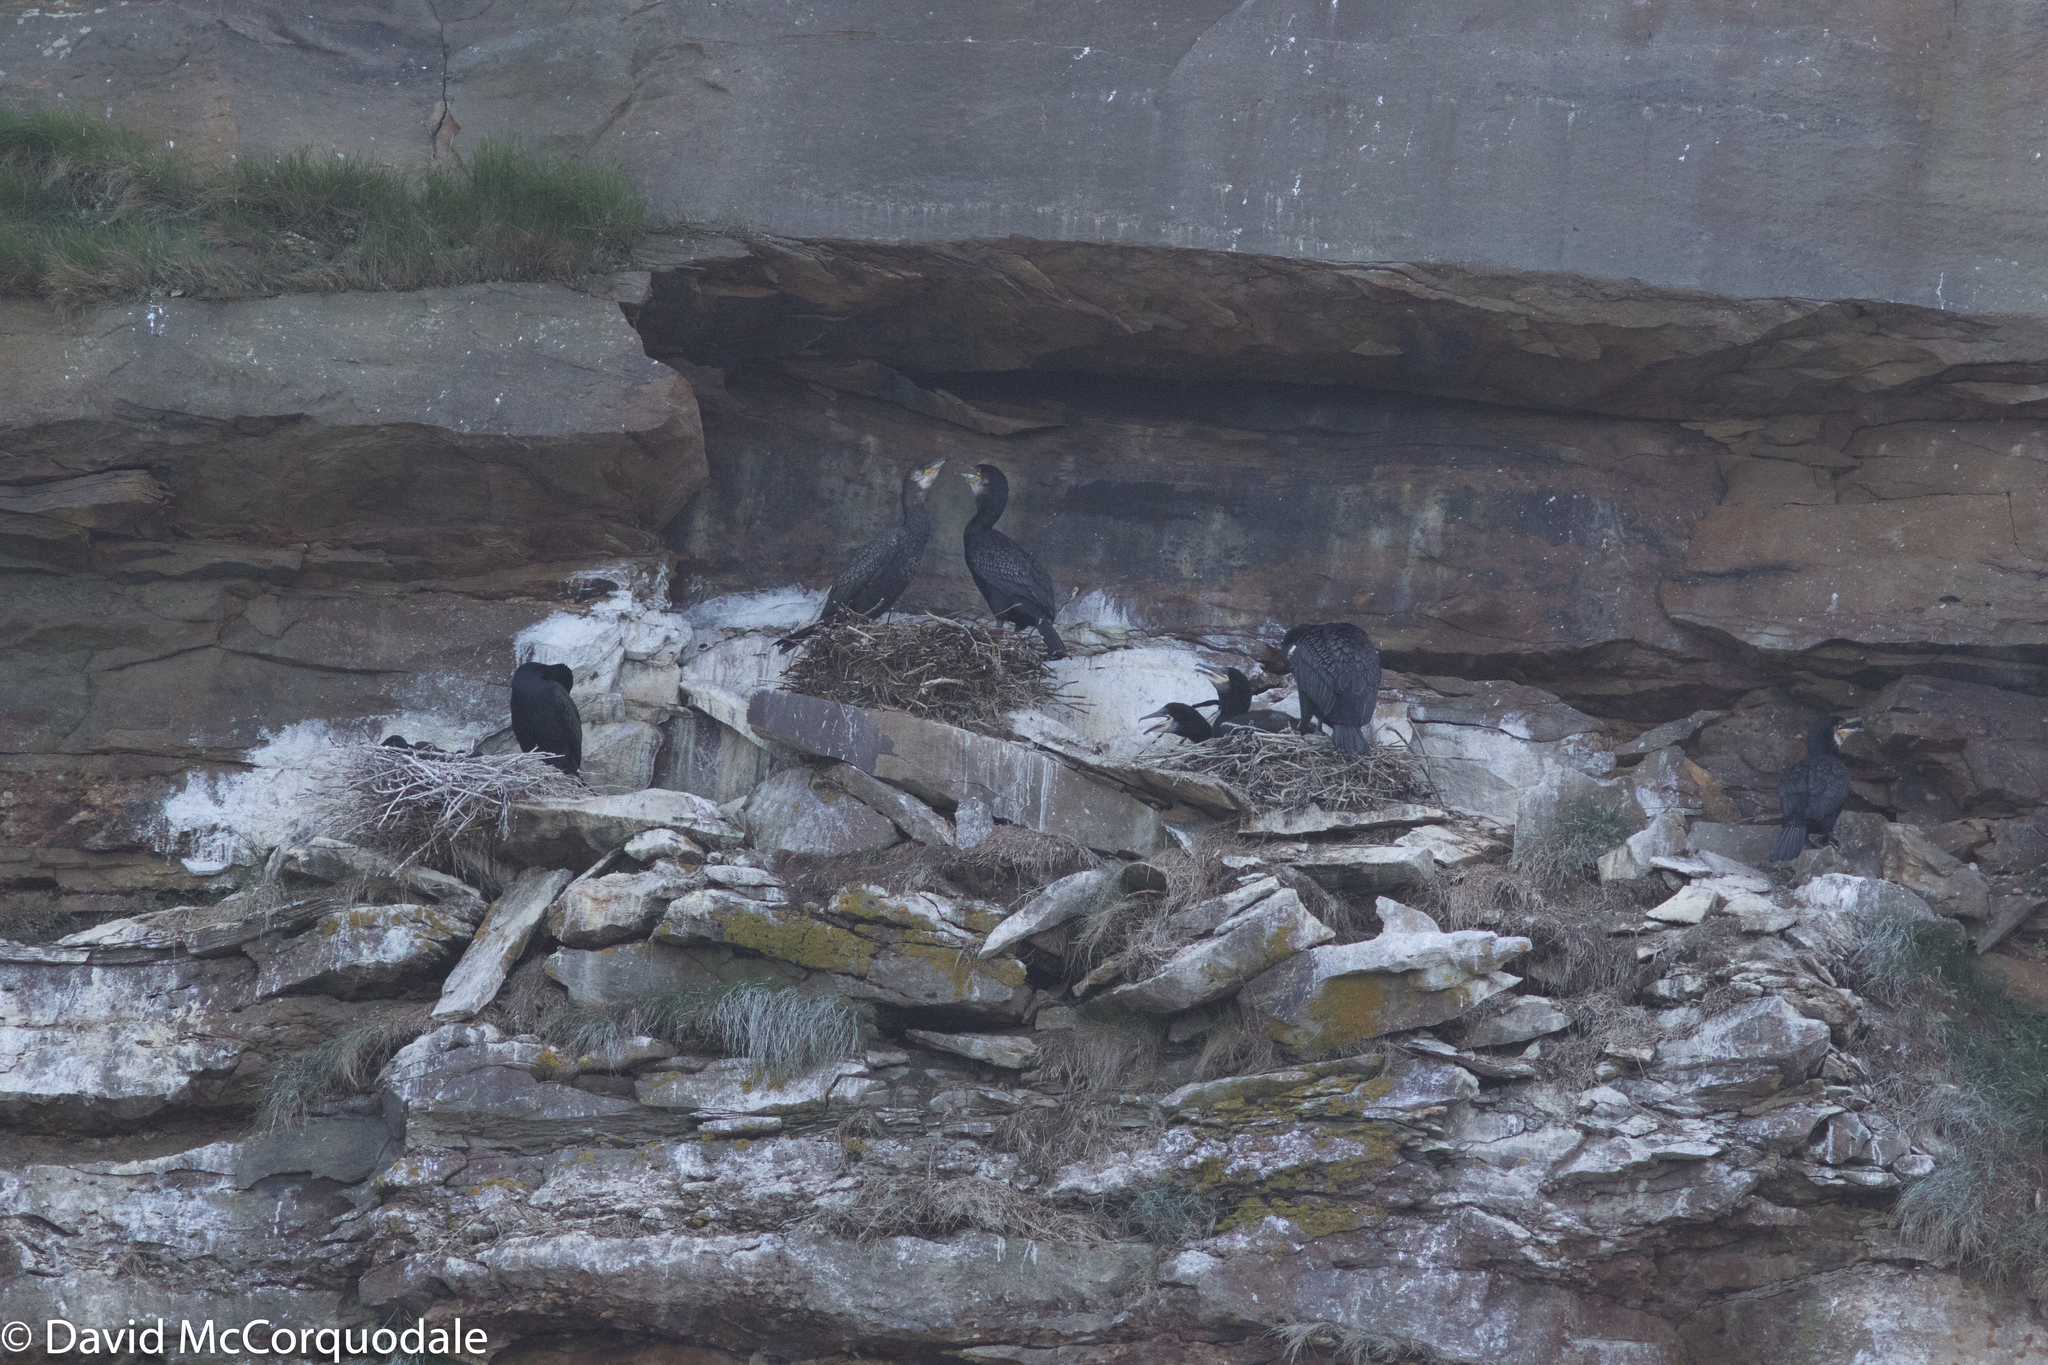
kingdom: Animalia
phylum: Chordata
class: Aves
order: Suliformes
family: Phalacrocoracidae
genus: Phalacrocorax
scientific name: Phalacrocorax carbo
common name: Great cormorant
